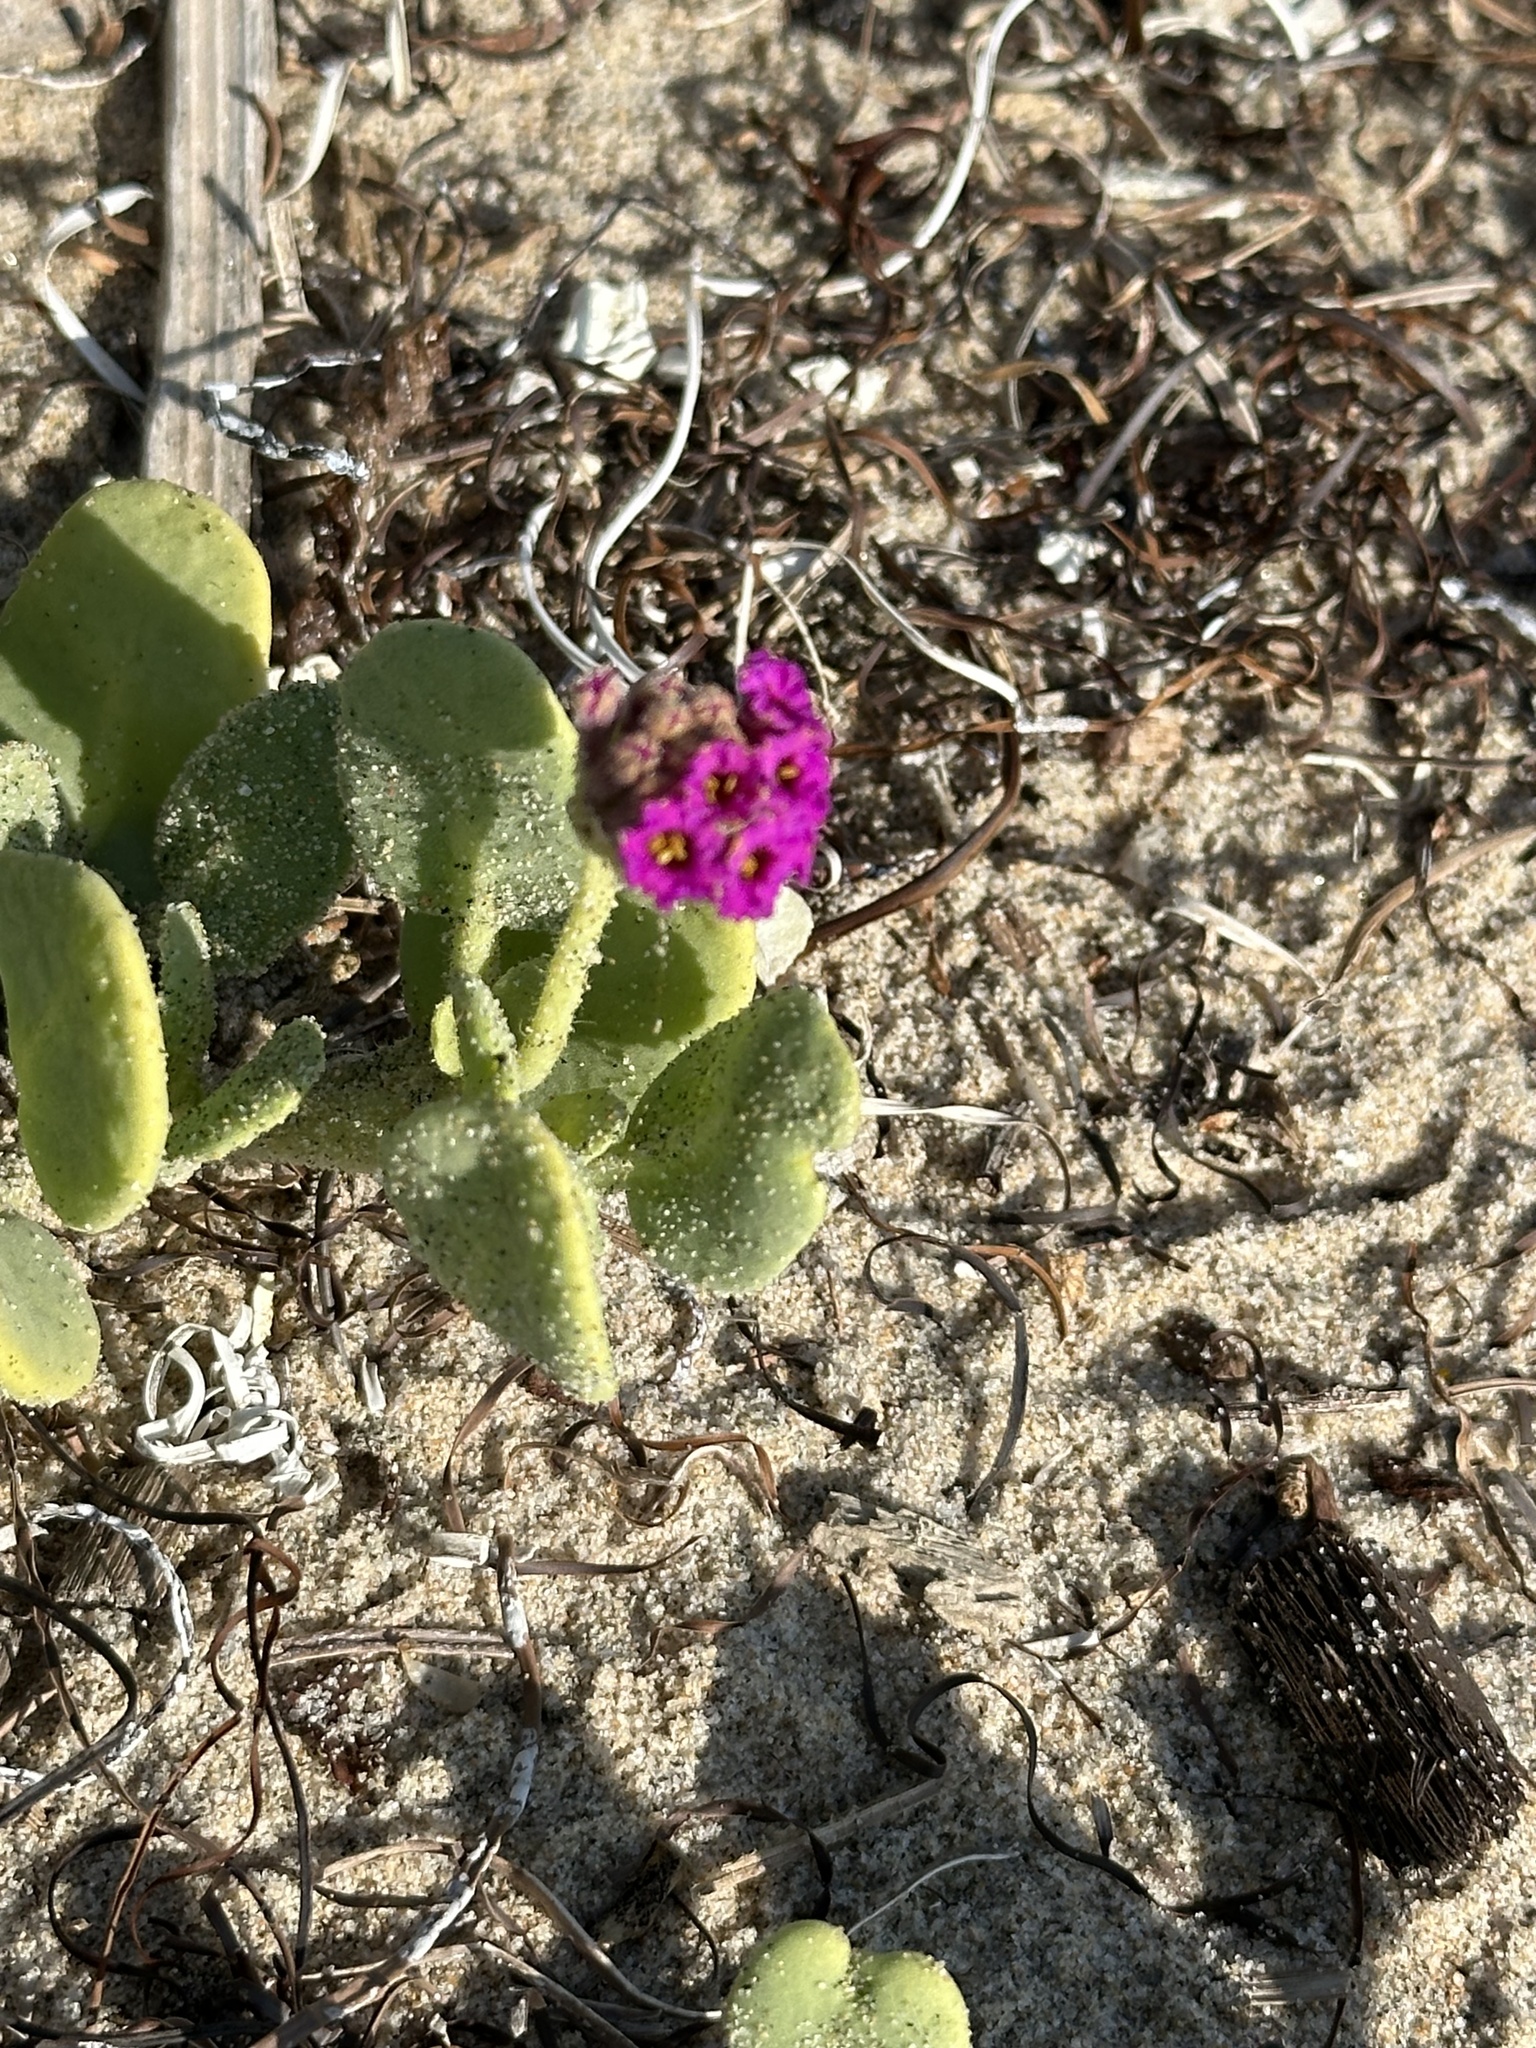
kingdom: Plantae
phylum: Tracheophyta
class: Magnoliopsida
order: Caryophyllales
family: Nyctaginaceae
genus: Abronia
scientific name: Abronia maritima
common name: Red sand-verbena
